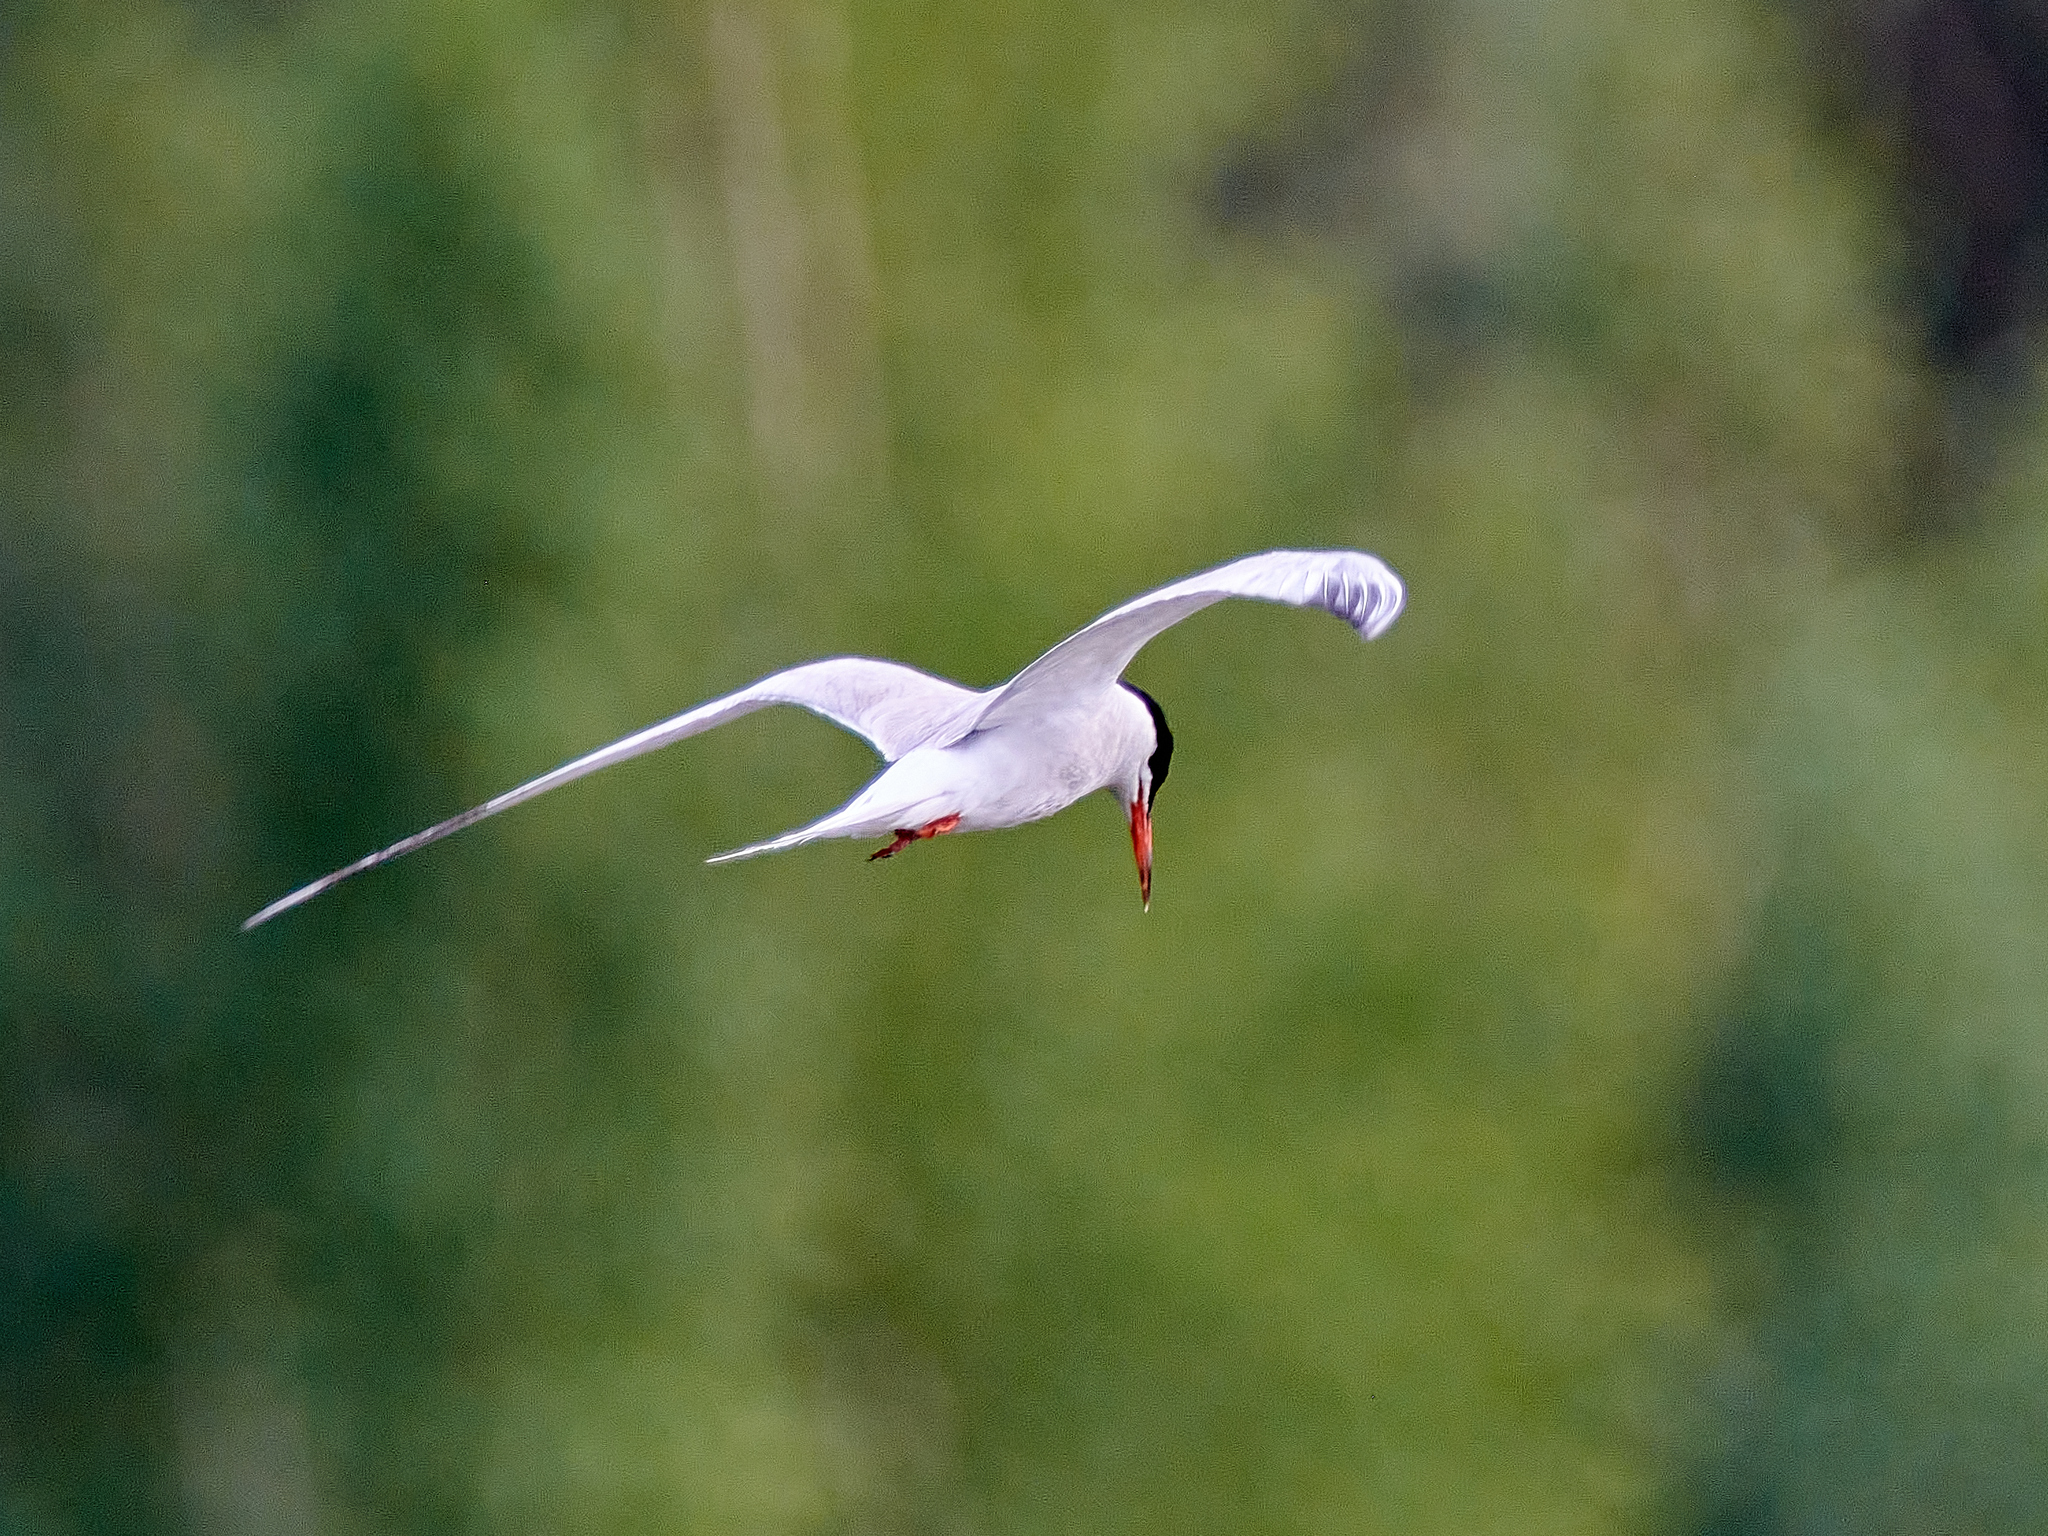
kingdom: Animalia
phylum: Chordata
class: Aves
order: Charadriiformes
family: Laridae
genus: Sterna
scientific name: Sterna hirundo
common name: Common tern
